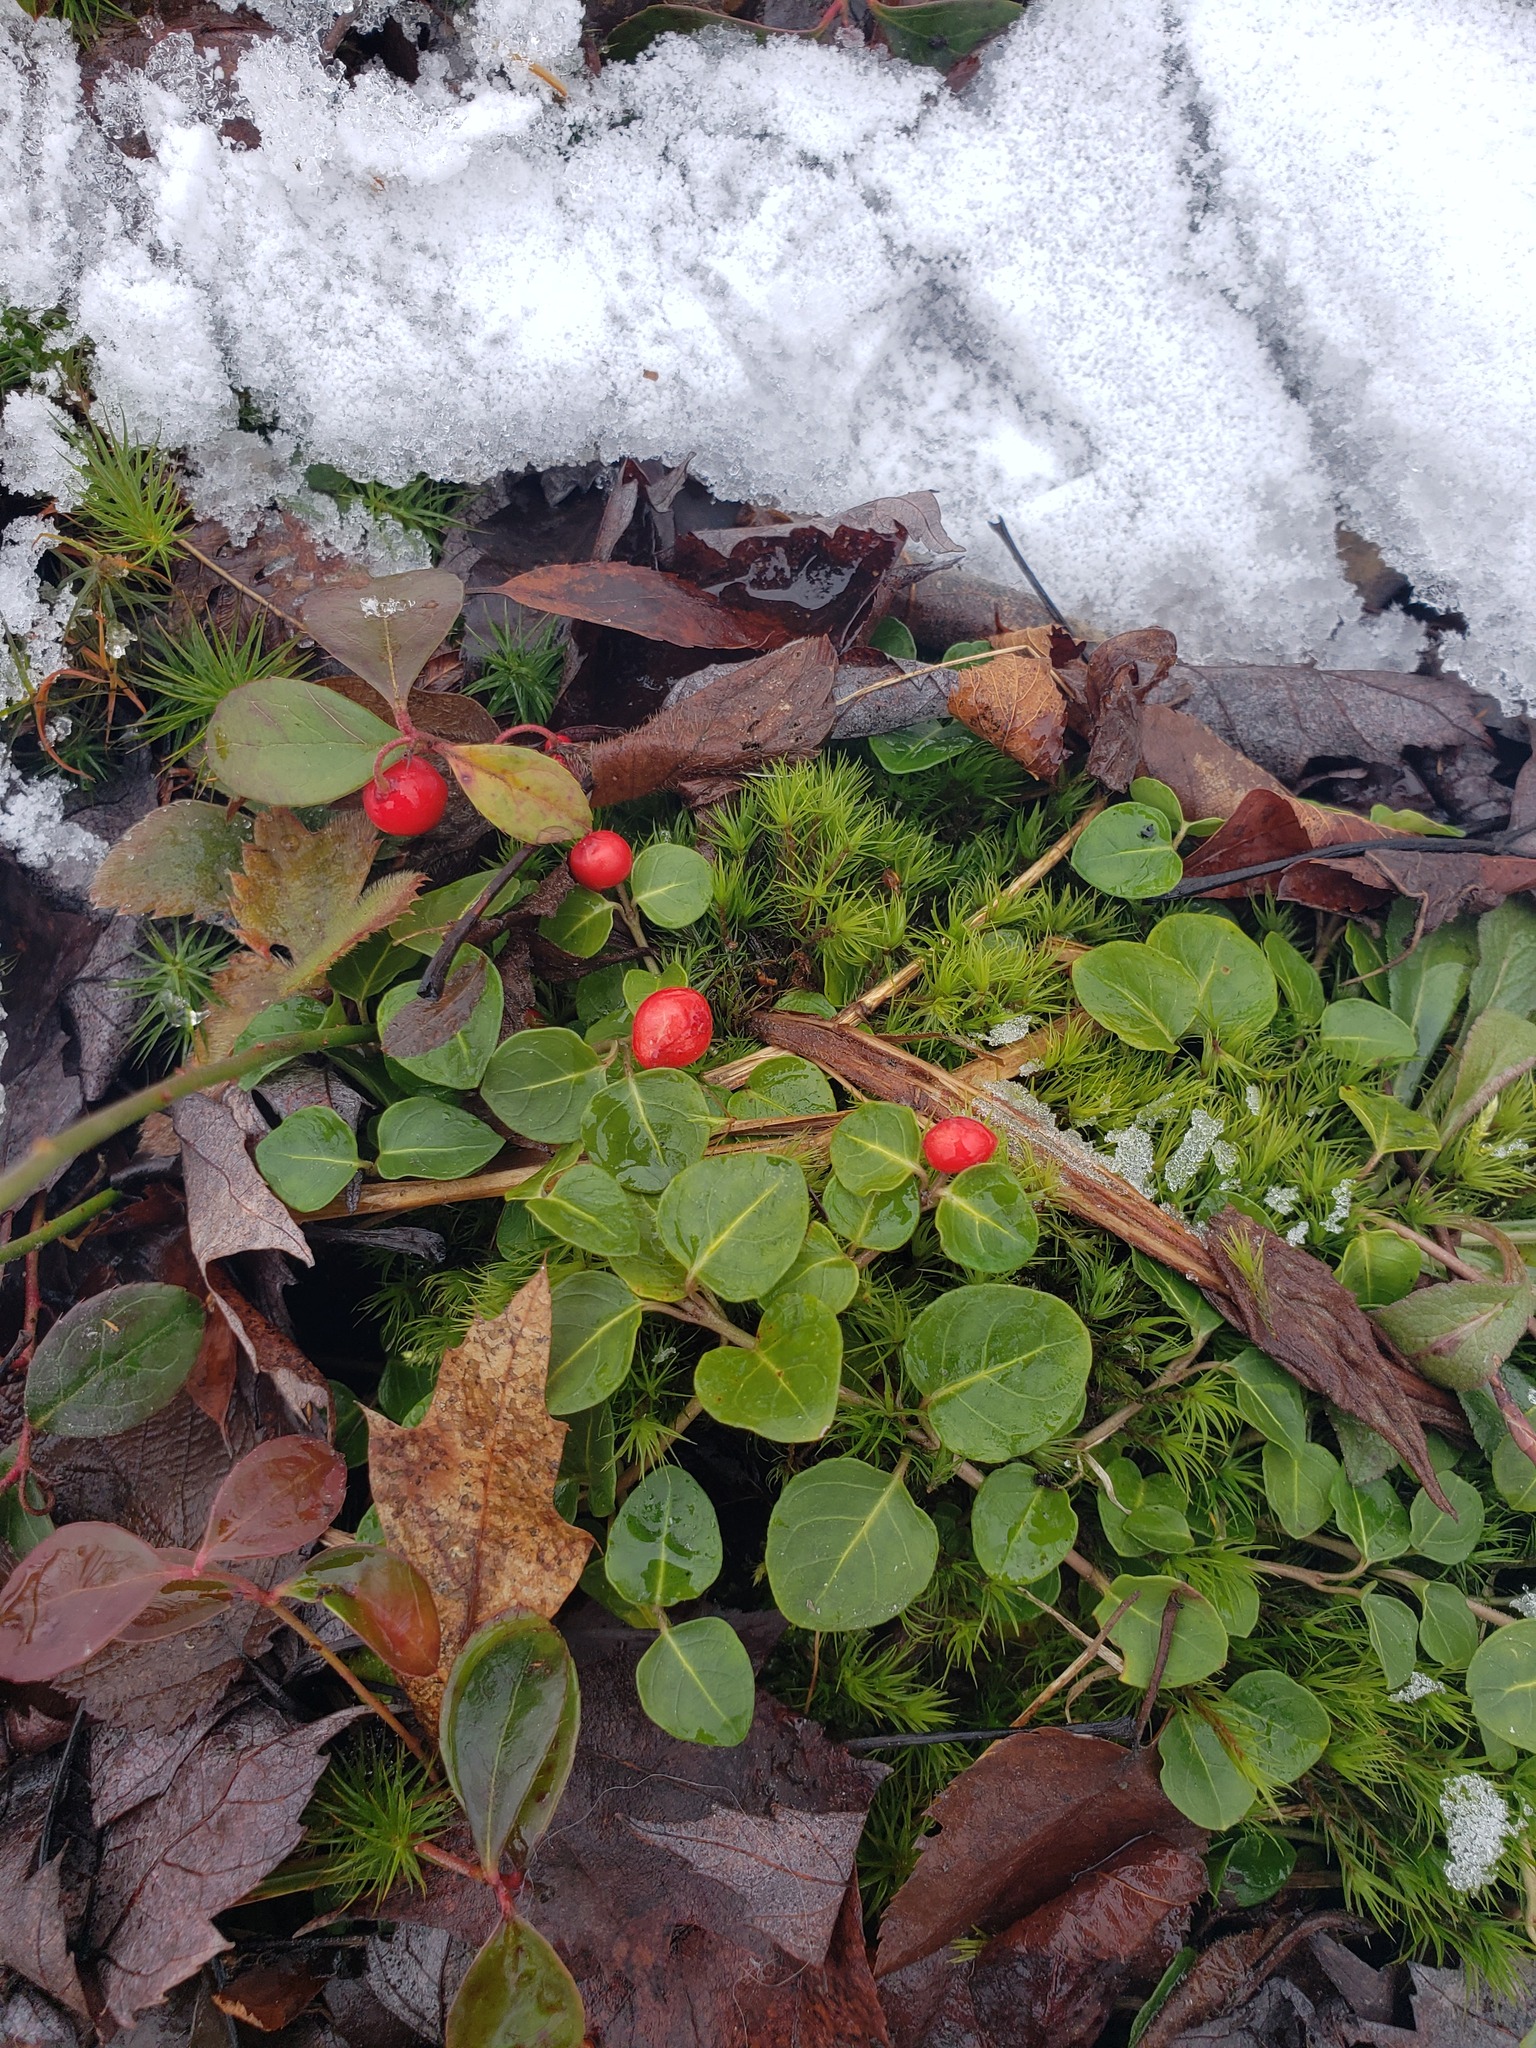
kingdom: Plantae
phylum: Tracheophyta
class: Magnoliopsida
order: Gentianales
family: Rubiaceae
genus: Mitchella
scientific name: Mitchella repens
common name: Partridge-berry
